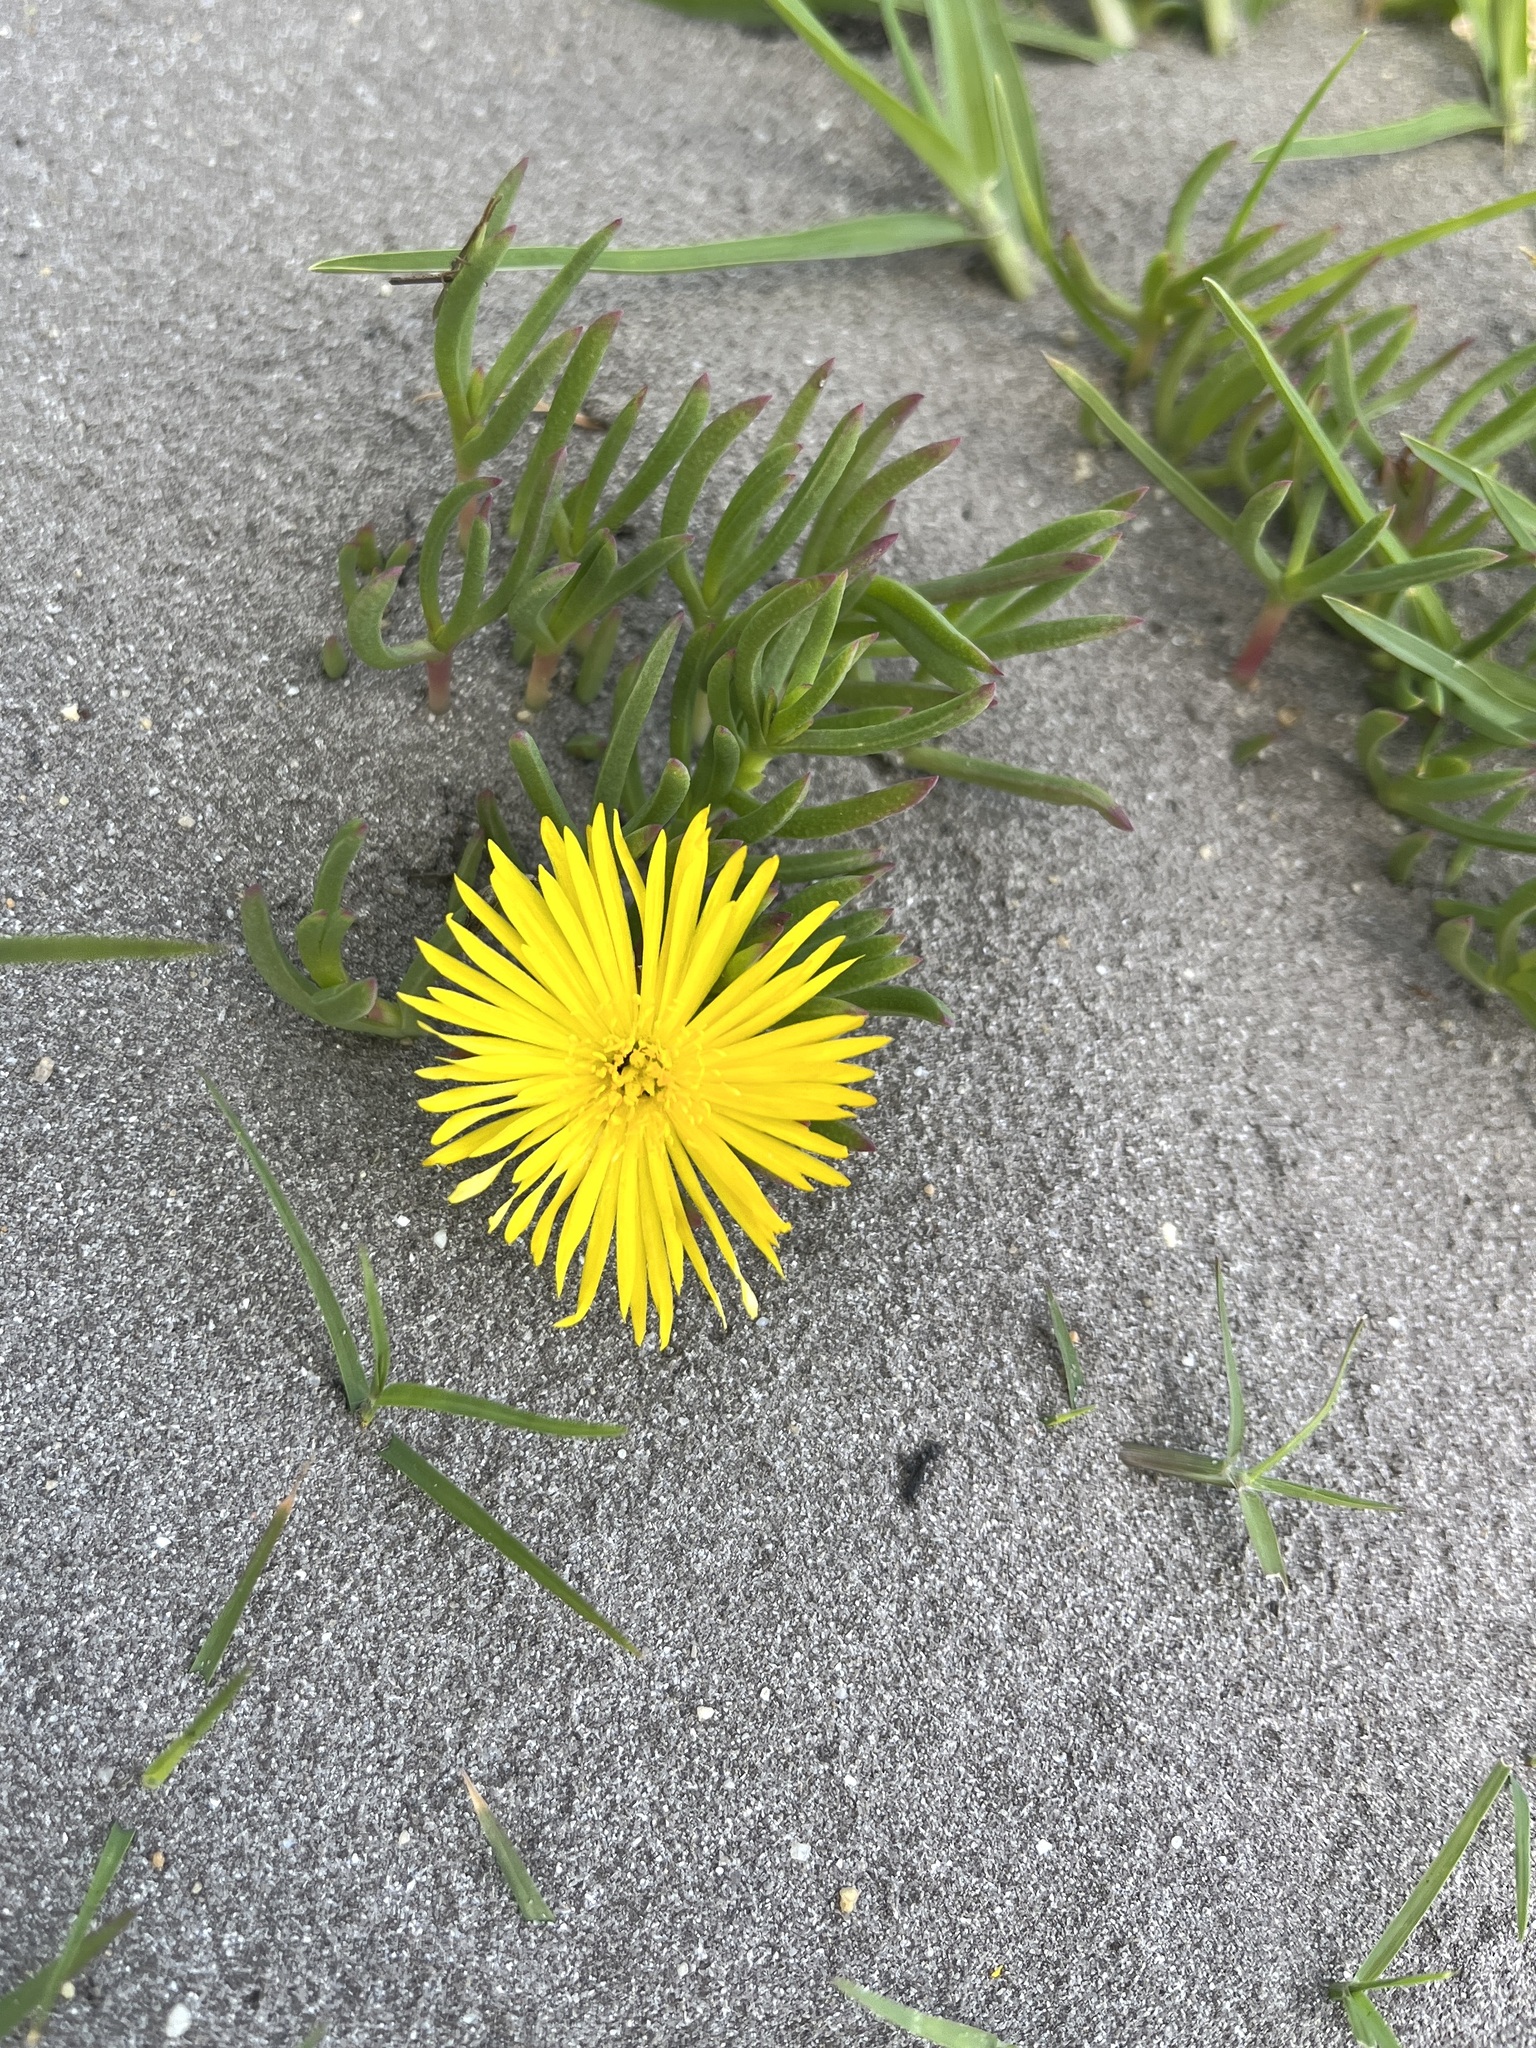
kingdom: Plantae
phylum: Tracheophyta
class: Magnoliopsida
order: Caryophyllales
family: Aizoaceae
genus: Jordaaniella
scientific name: Jordaaniella dubia
